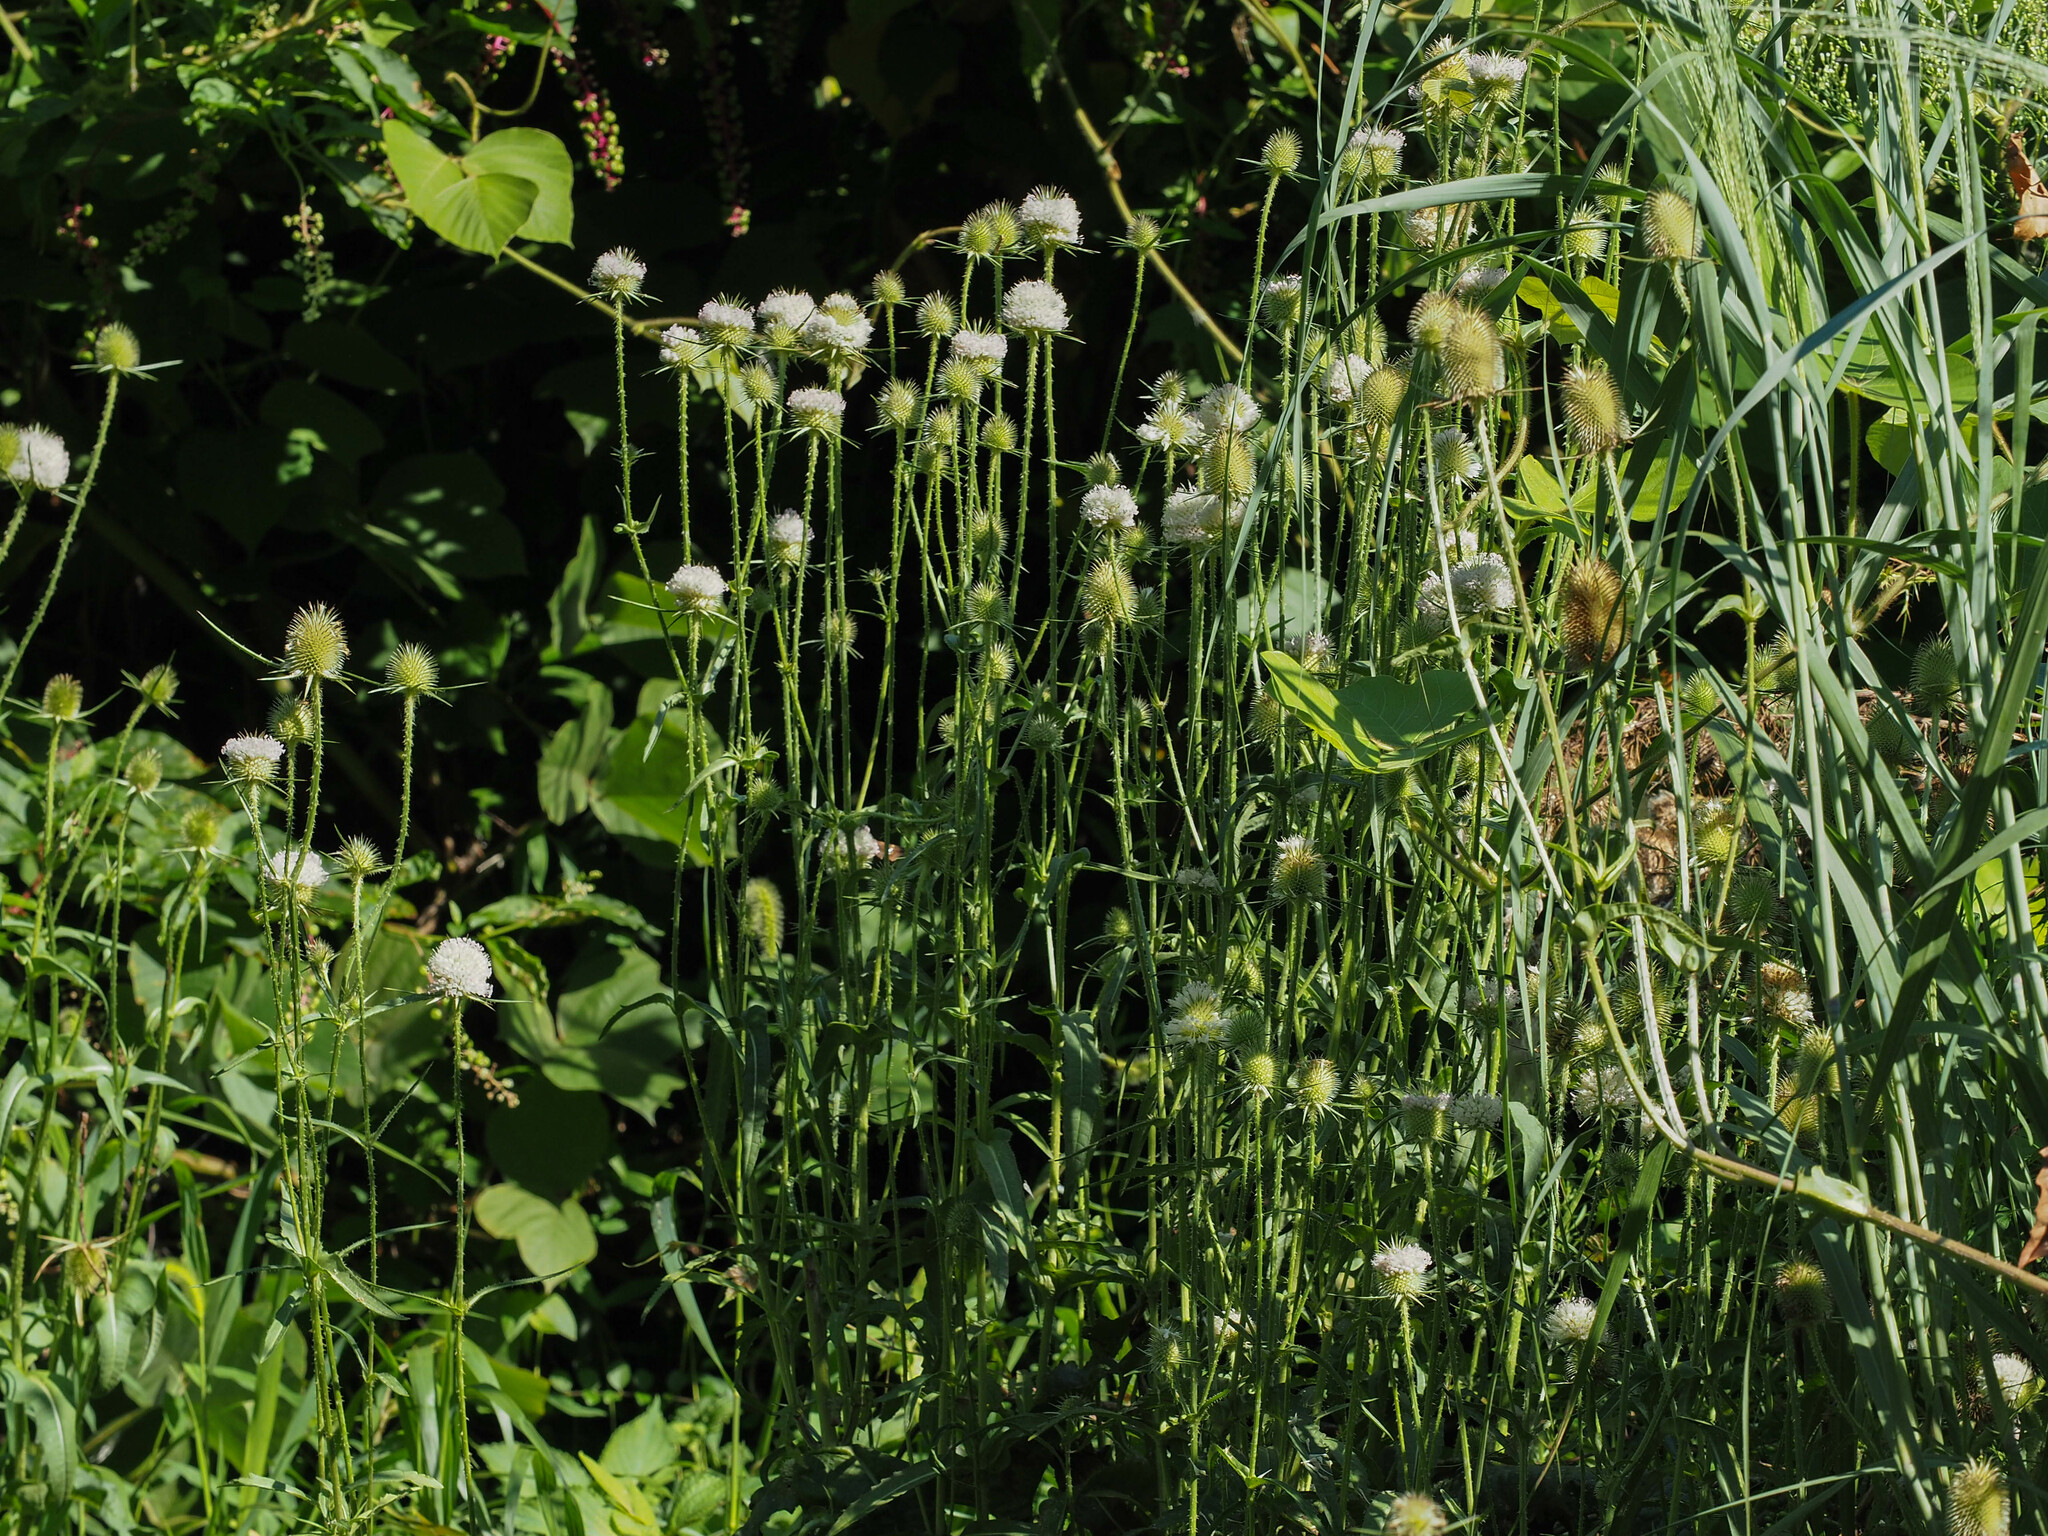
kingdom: Plantae
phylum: Tracheophyta
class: Magnoliopsida
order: Dipsacales
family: Caprifoliaceae
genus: Dipsacus
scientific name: Dipsacus laciniatus
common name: Cut-leaved teasel
